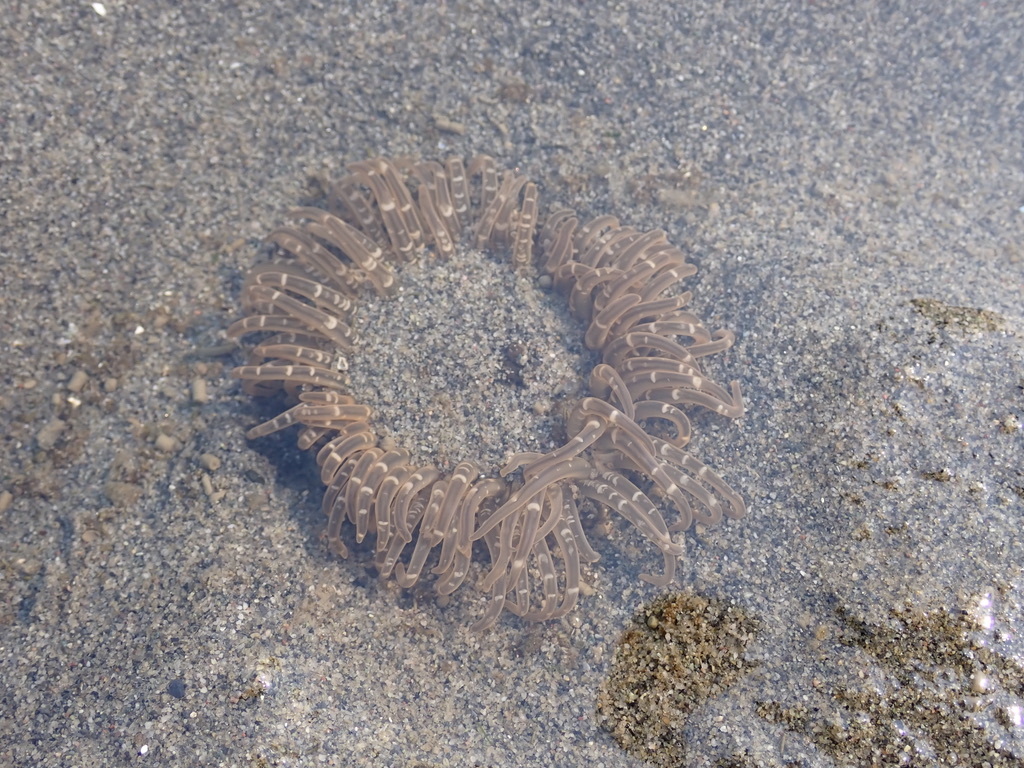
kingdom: Animalia
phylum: Cnidaria
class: Anthozoa
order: Actiniaria
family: Actiniidae
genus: Anthopleura
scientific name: Anthopleura artemisia
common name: Buried sea anemone
